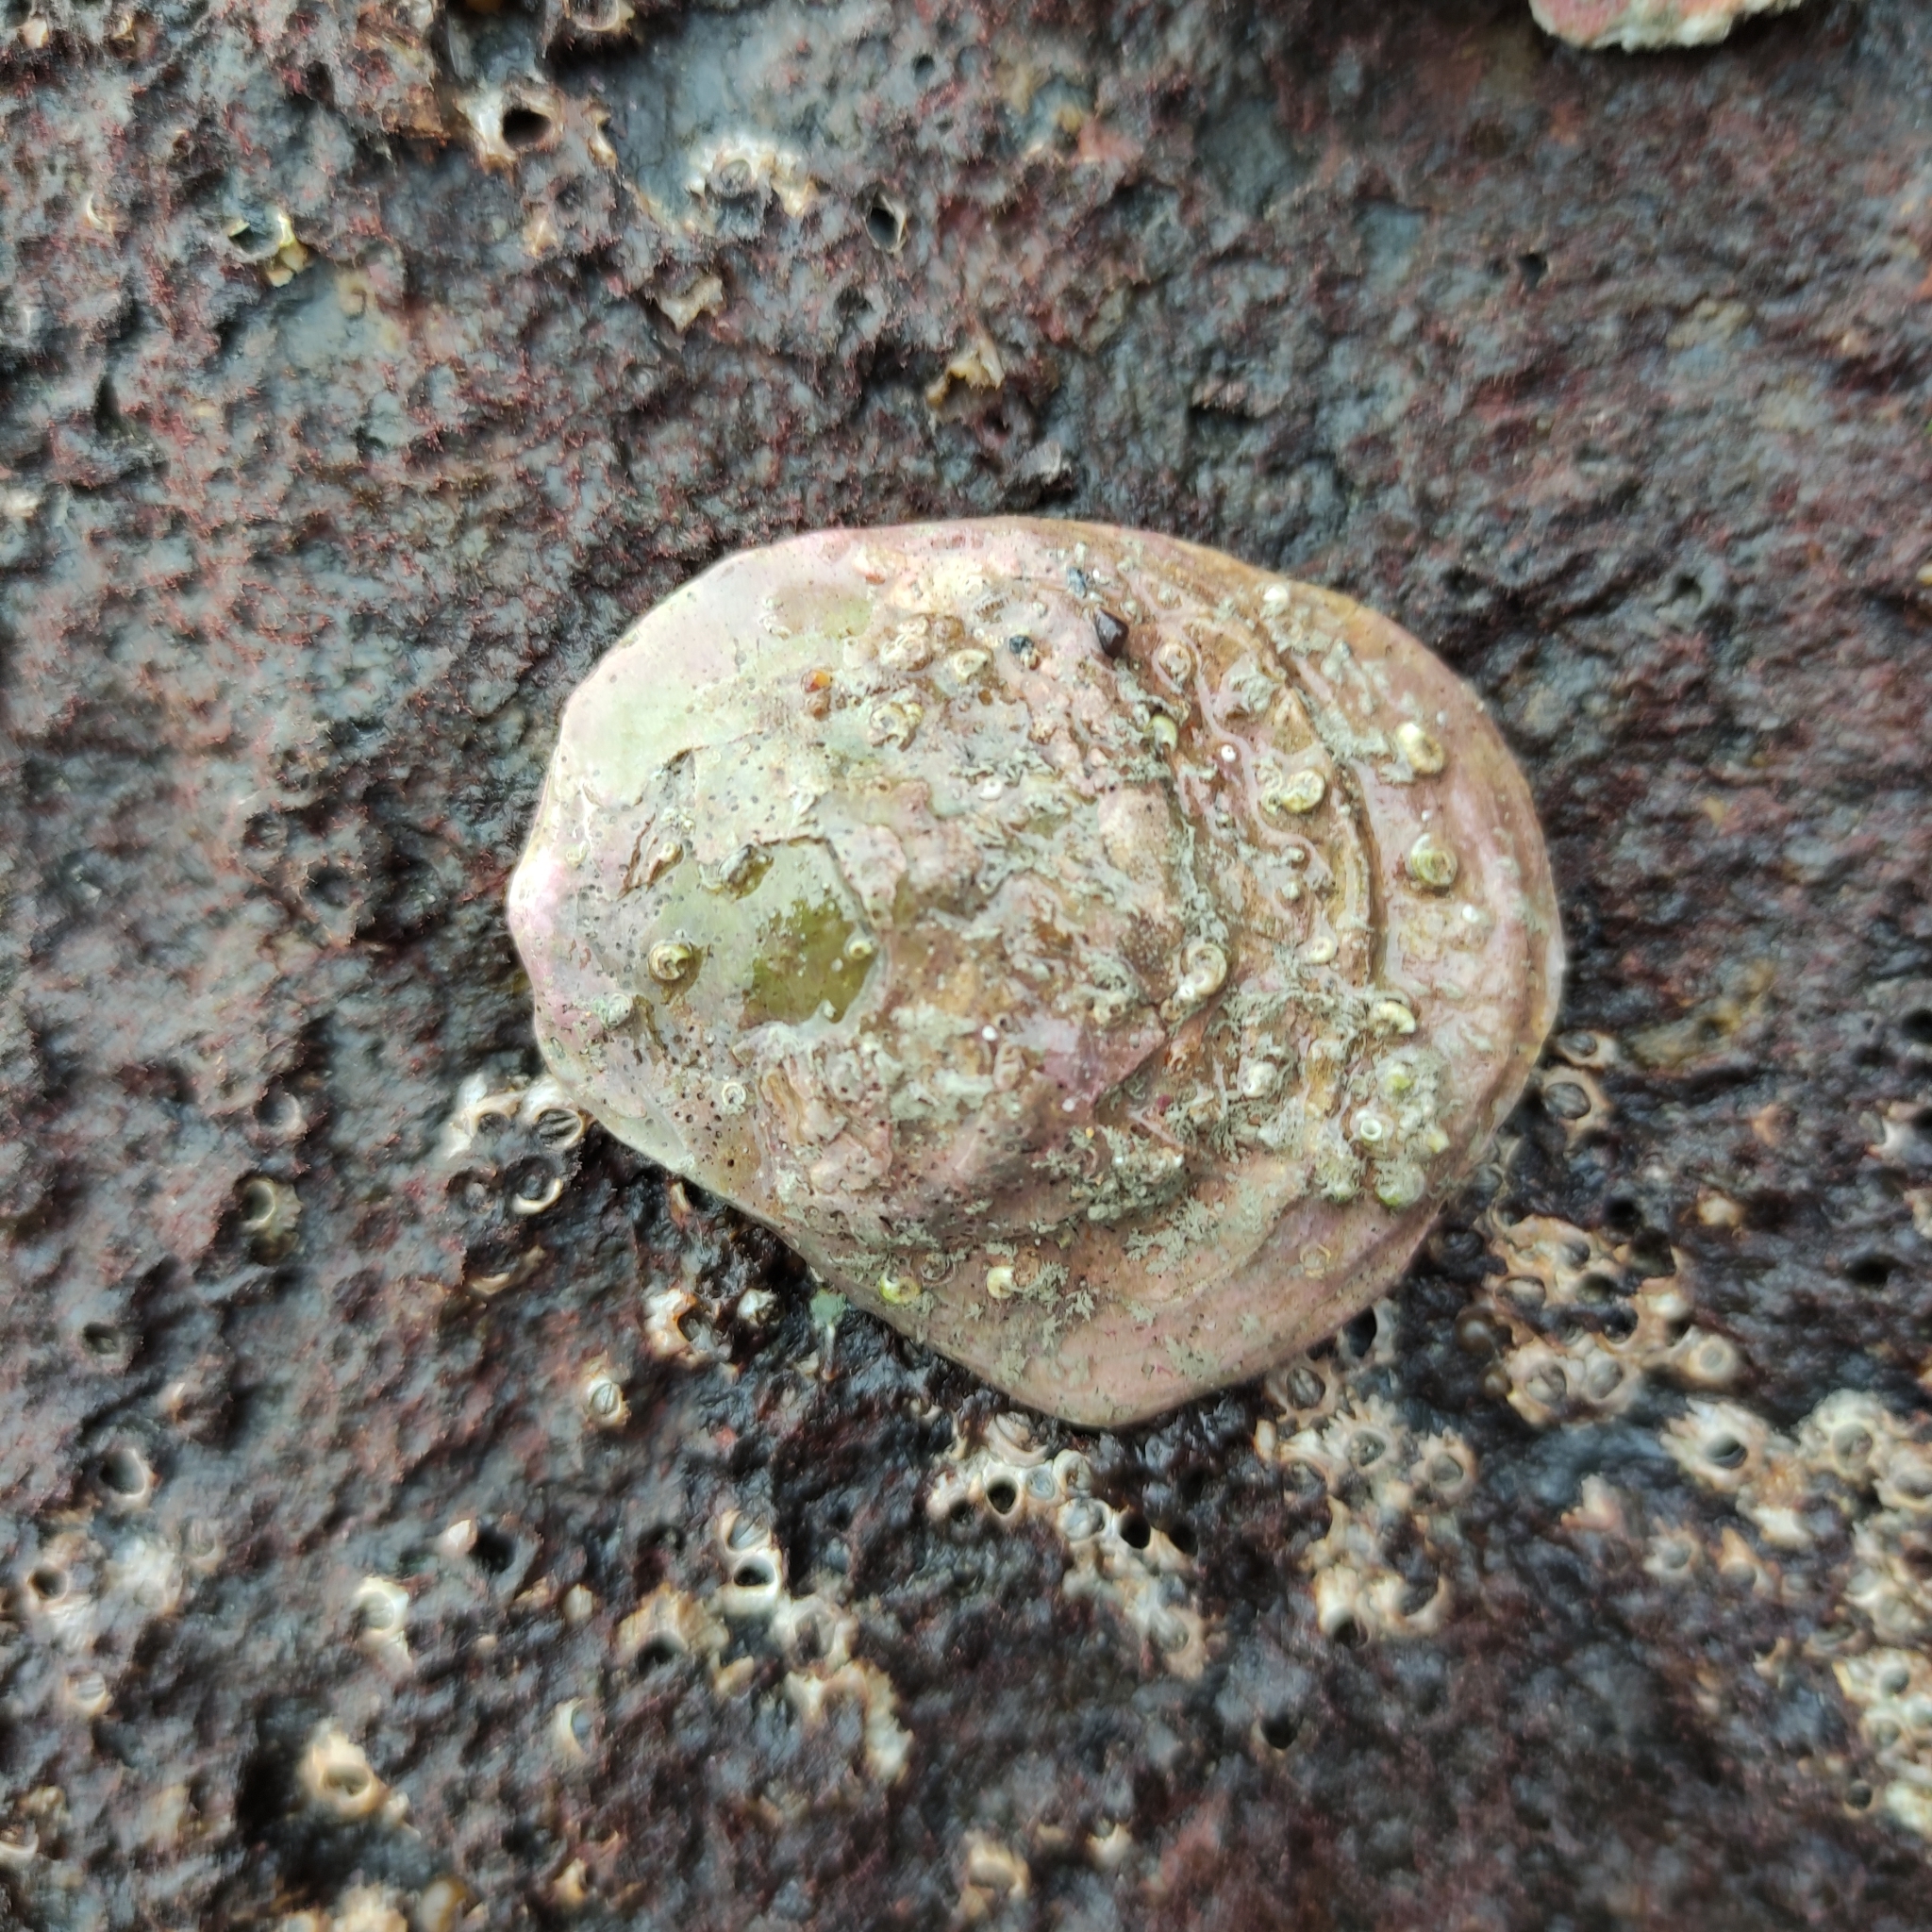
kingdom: Animalia
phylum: Mollusca
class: Bivalvia
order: Ostreida
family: Ostreidae
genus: Ostrea
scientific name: Ostrea chilensis
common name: Chilean oyster
